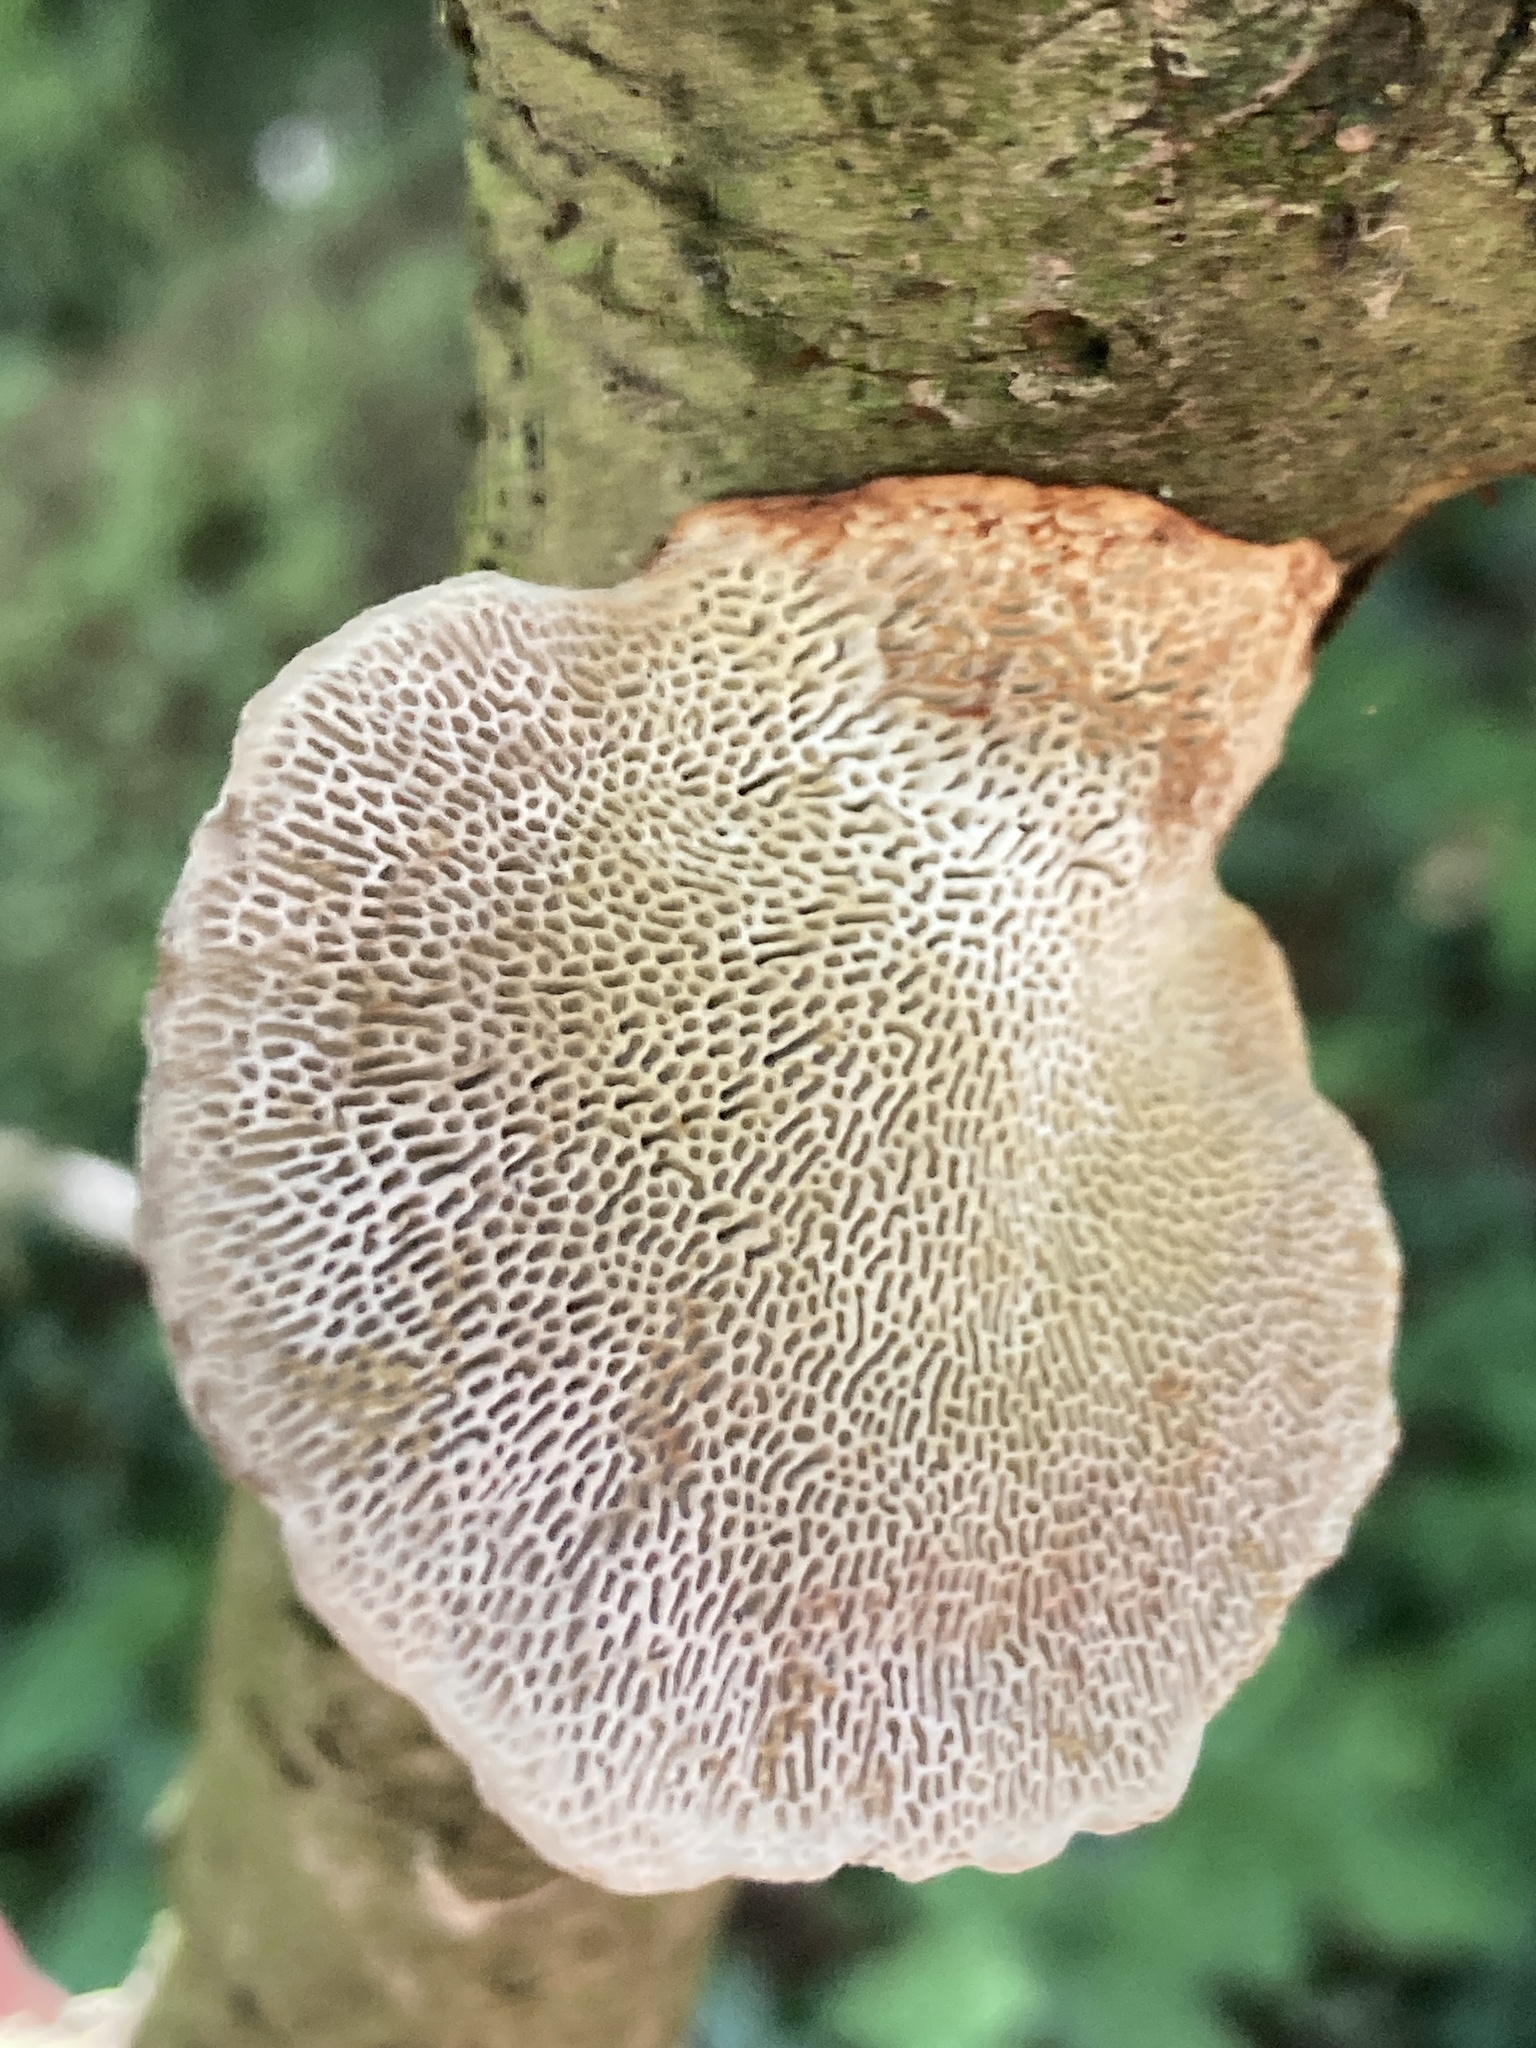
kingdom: Fungi
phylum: Basidiomycota
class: Agaricomycetes
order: Polyporales
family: Polyporaceae
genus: Daedaleopsis
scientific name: Daedaleopsis confragosa
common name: Blushing bracket
